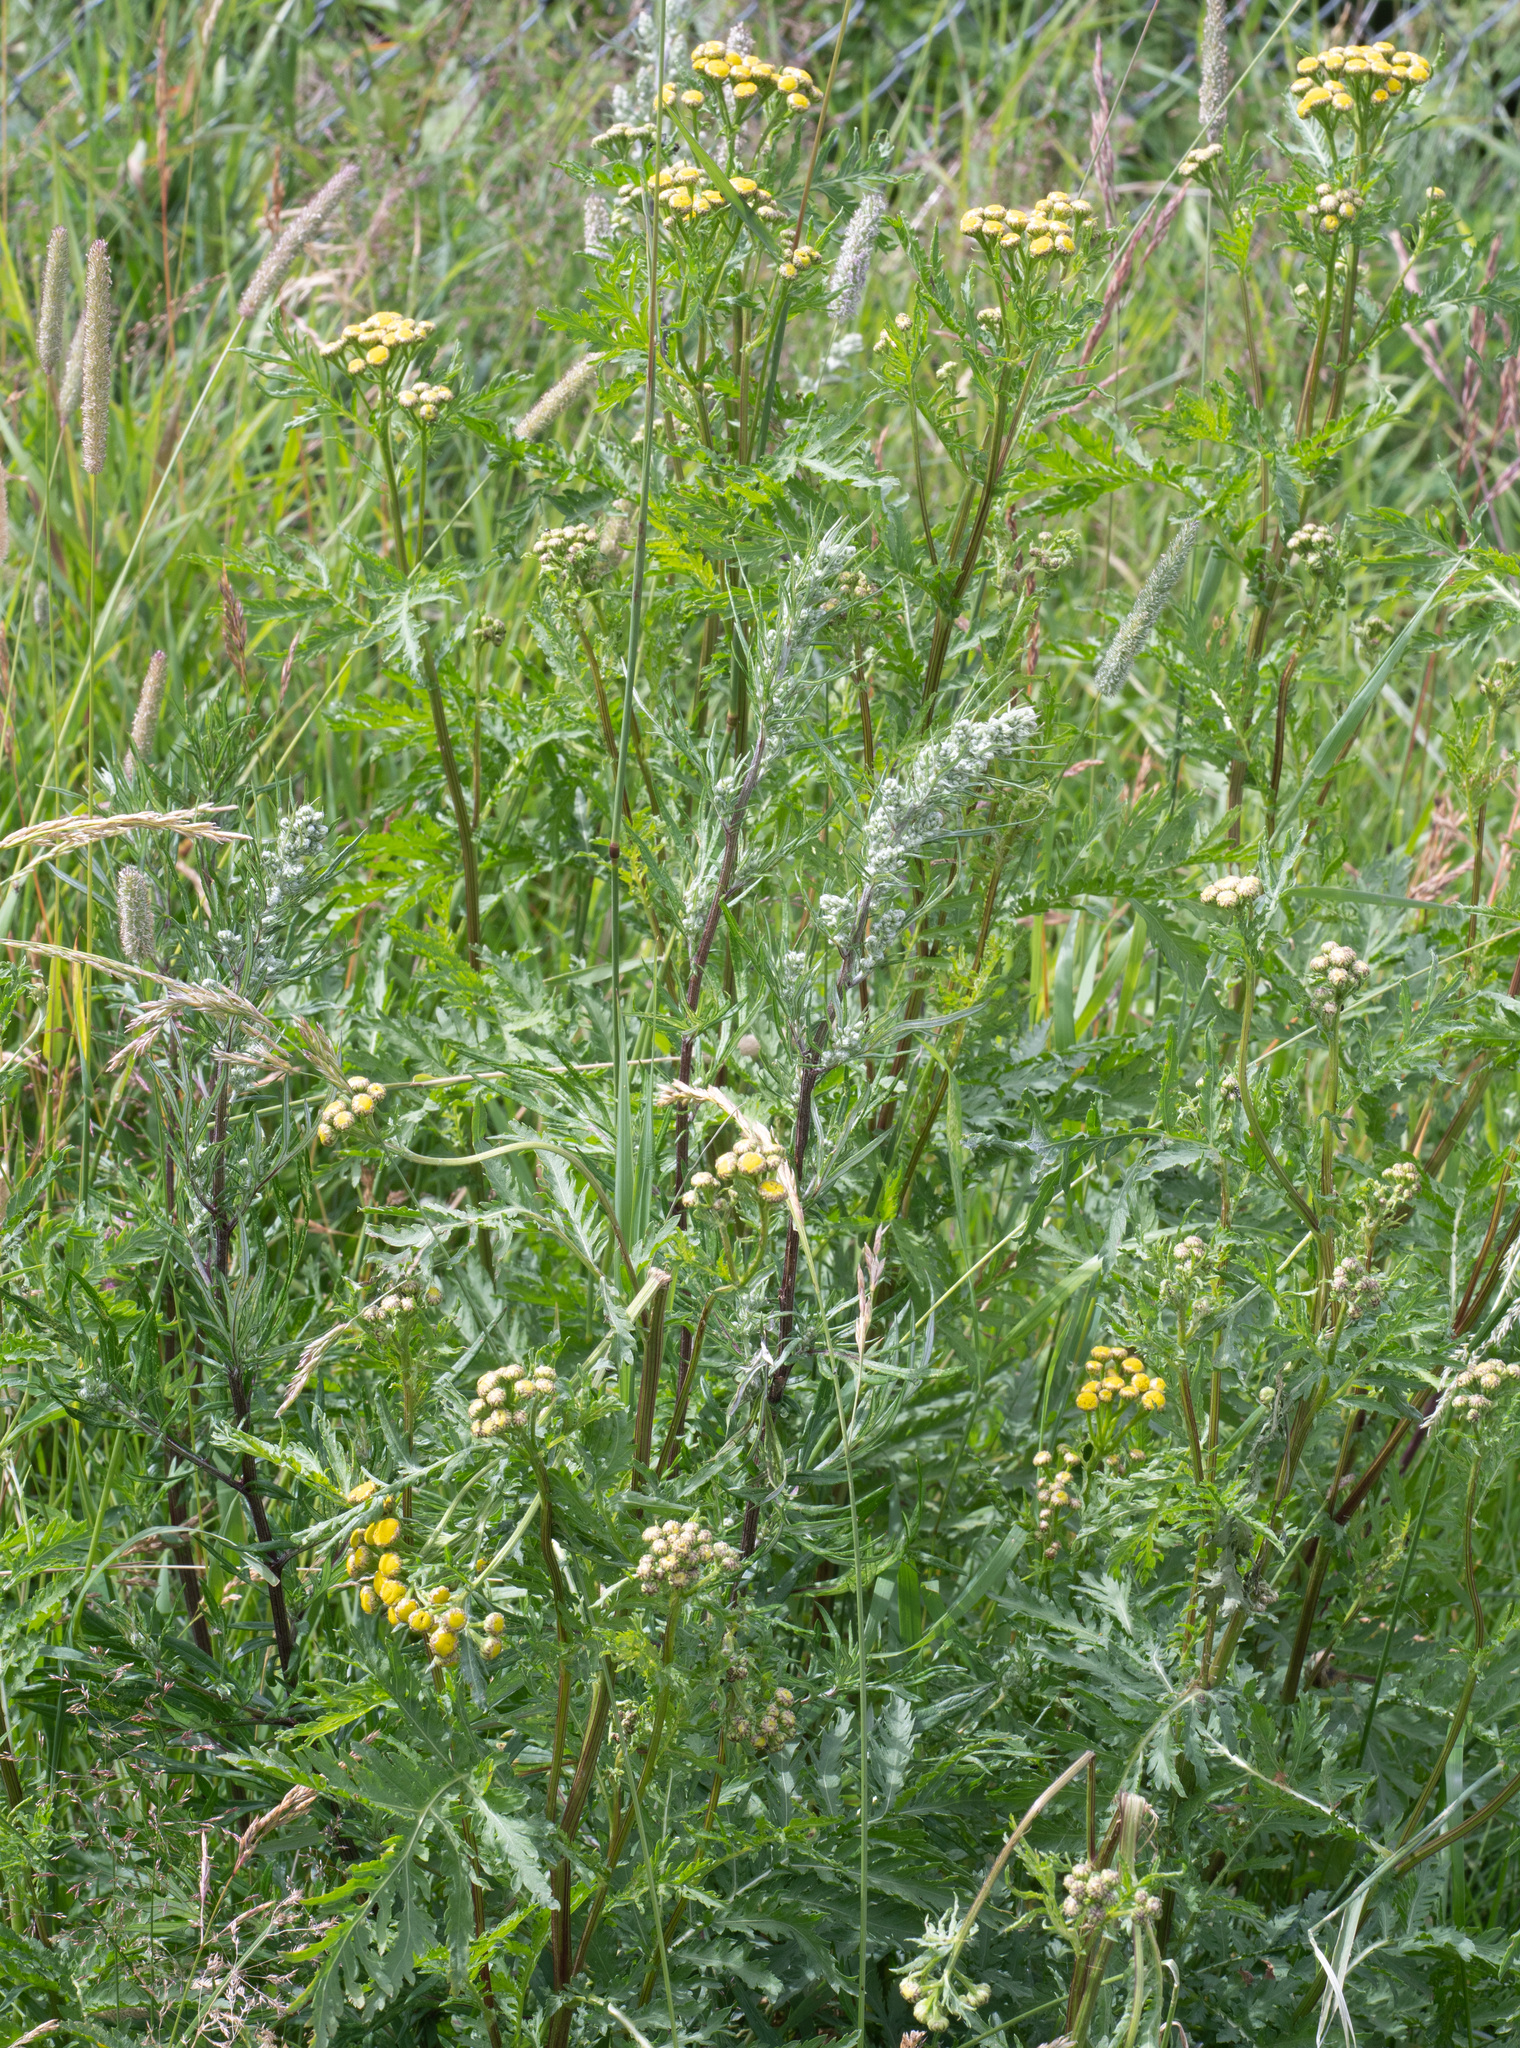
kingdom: Plantae
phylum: Tracheophyta
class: Magnoliopsida
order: Asterales
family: Asteraceae
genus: Tanacetum
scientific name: Tanacetum vulgare
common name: Common tansy
